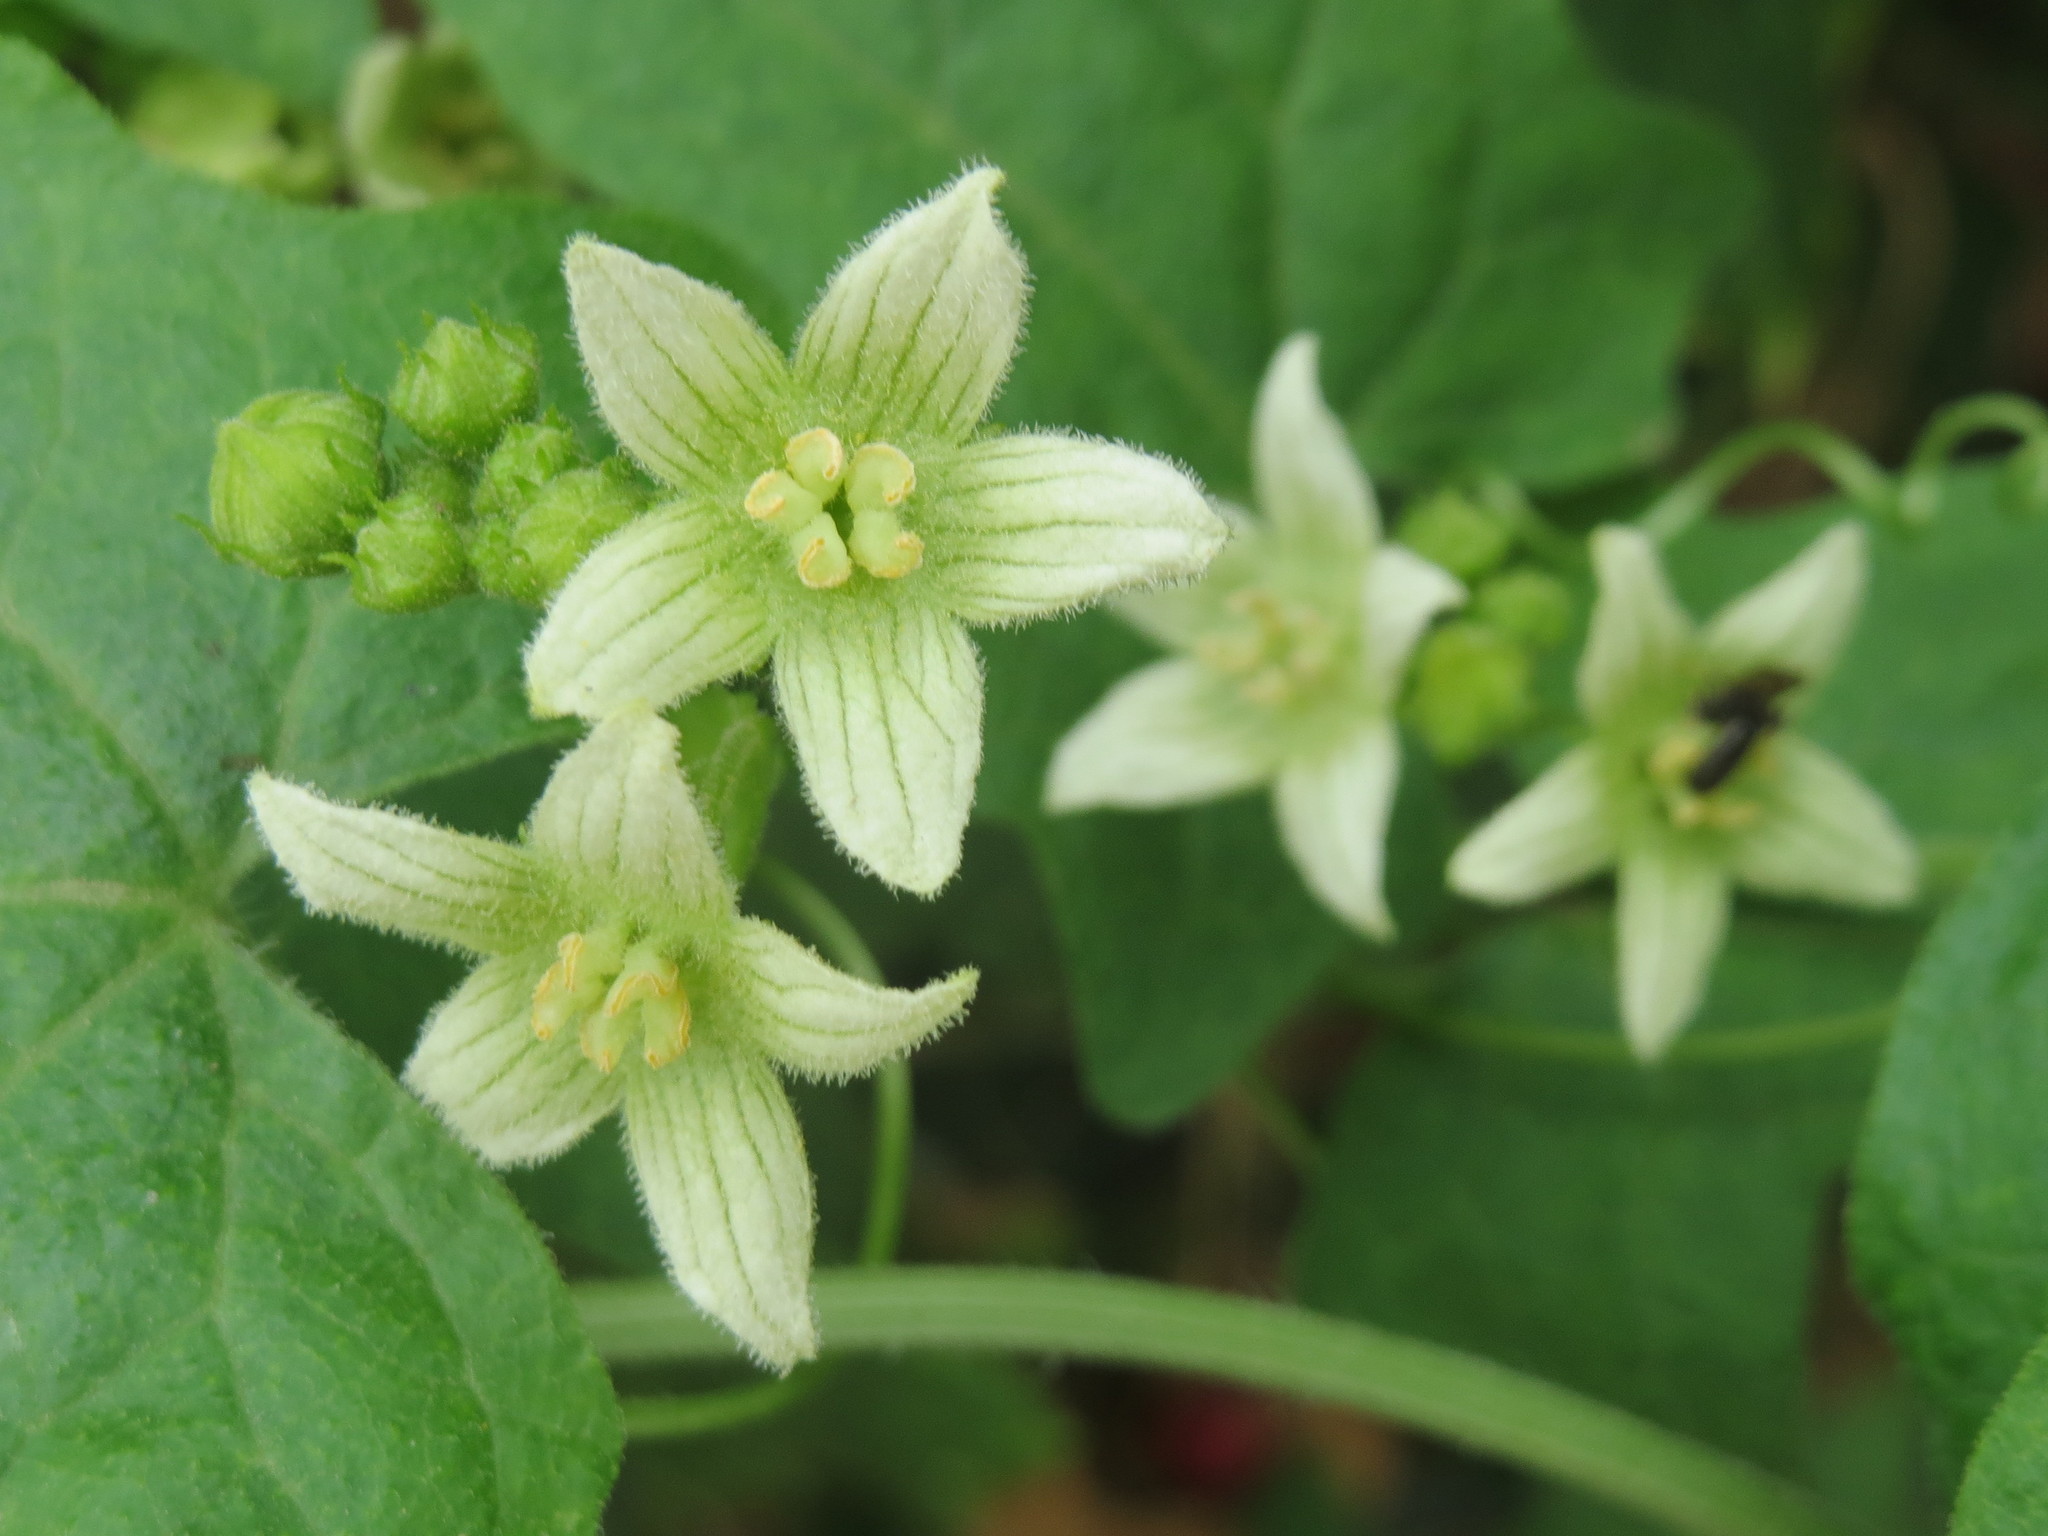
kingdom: Plantae
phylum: Tracheophyta
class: Magnoliopsida
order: Cucurbitales
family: Cucurbitaceae
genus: Bryonia
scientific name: Bryonia dioica
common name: White bryony
